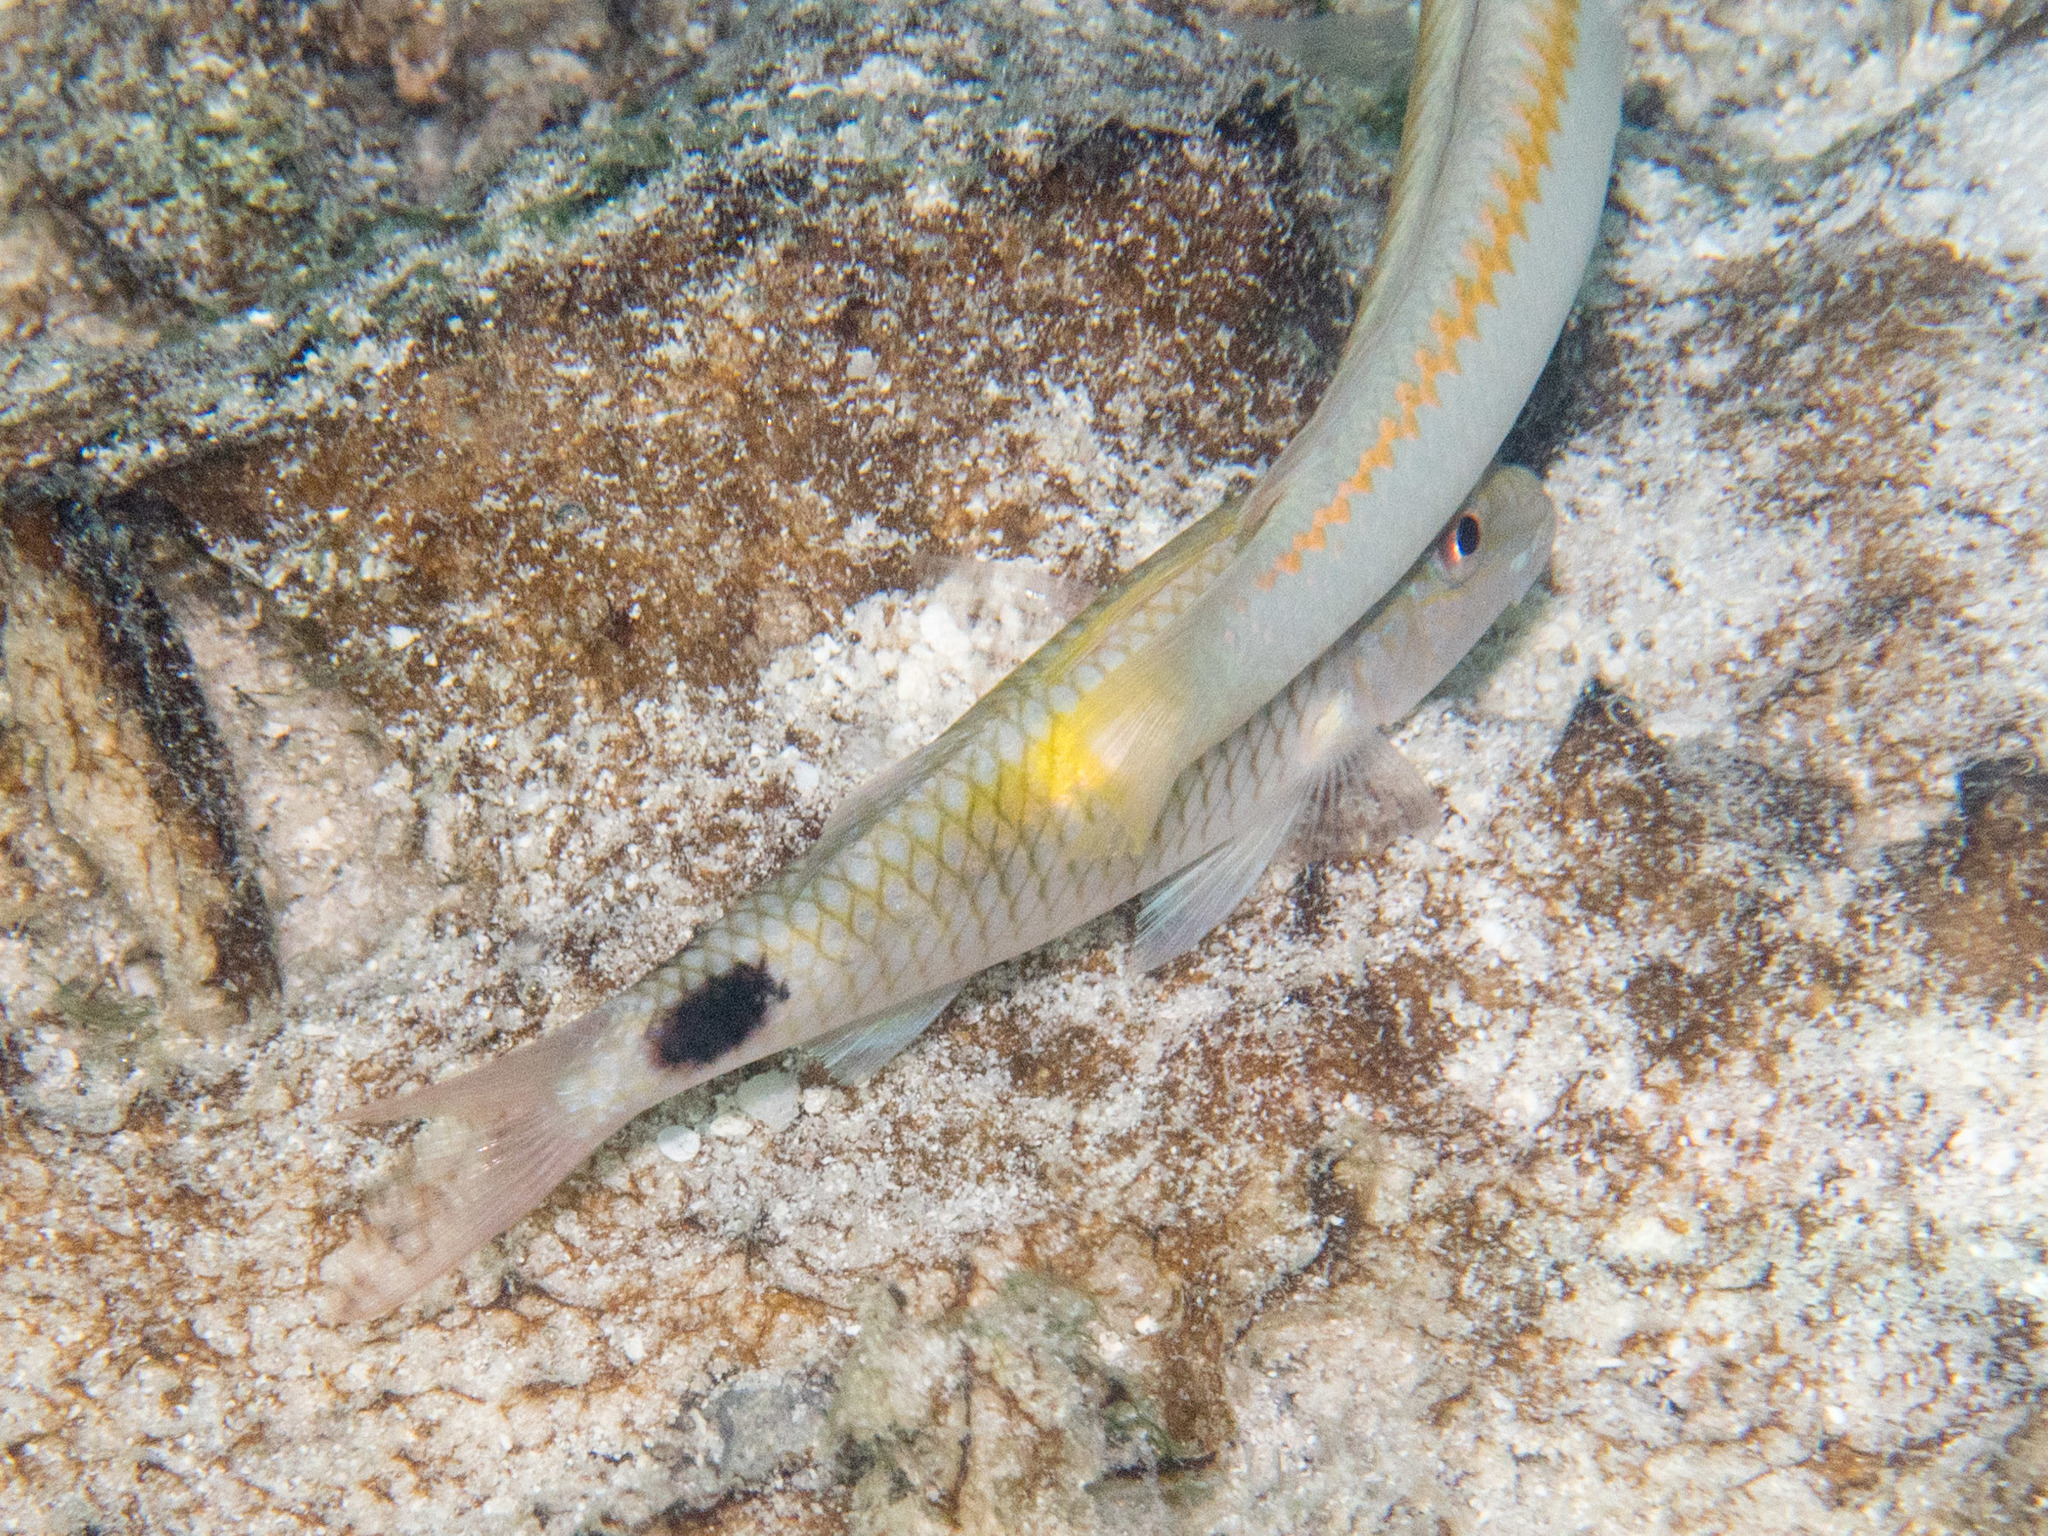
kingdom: Animalia
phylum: Chordata
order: Perciformes
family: Mullidae
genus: Parupeneus
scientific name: Parupeneus indicus
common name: Indian goatfish
